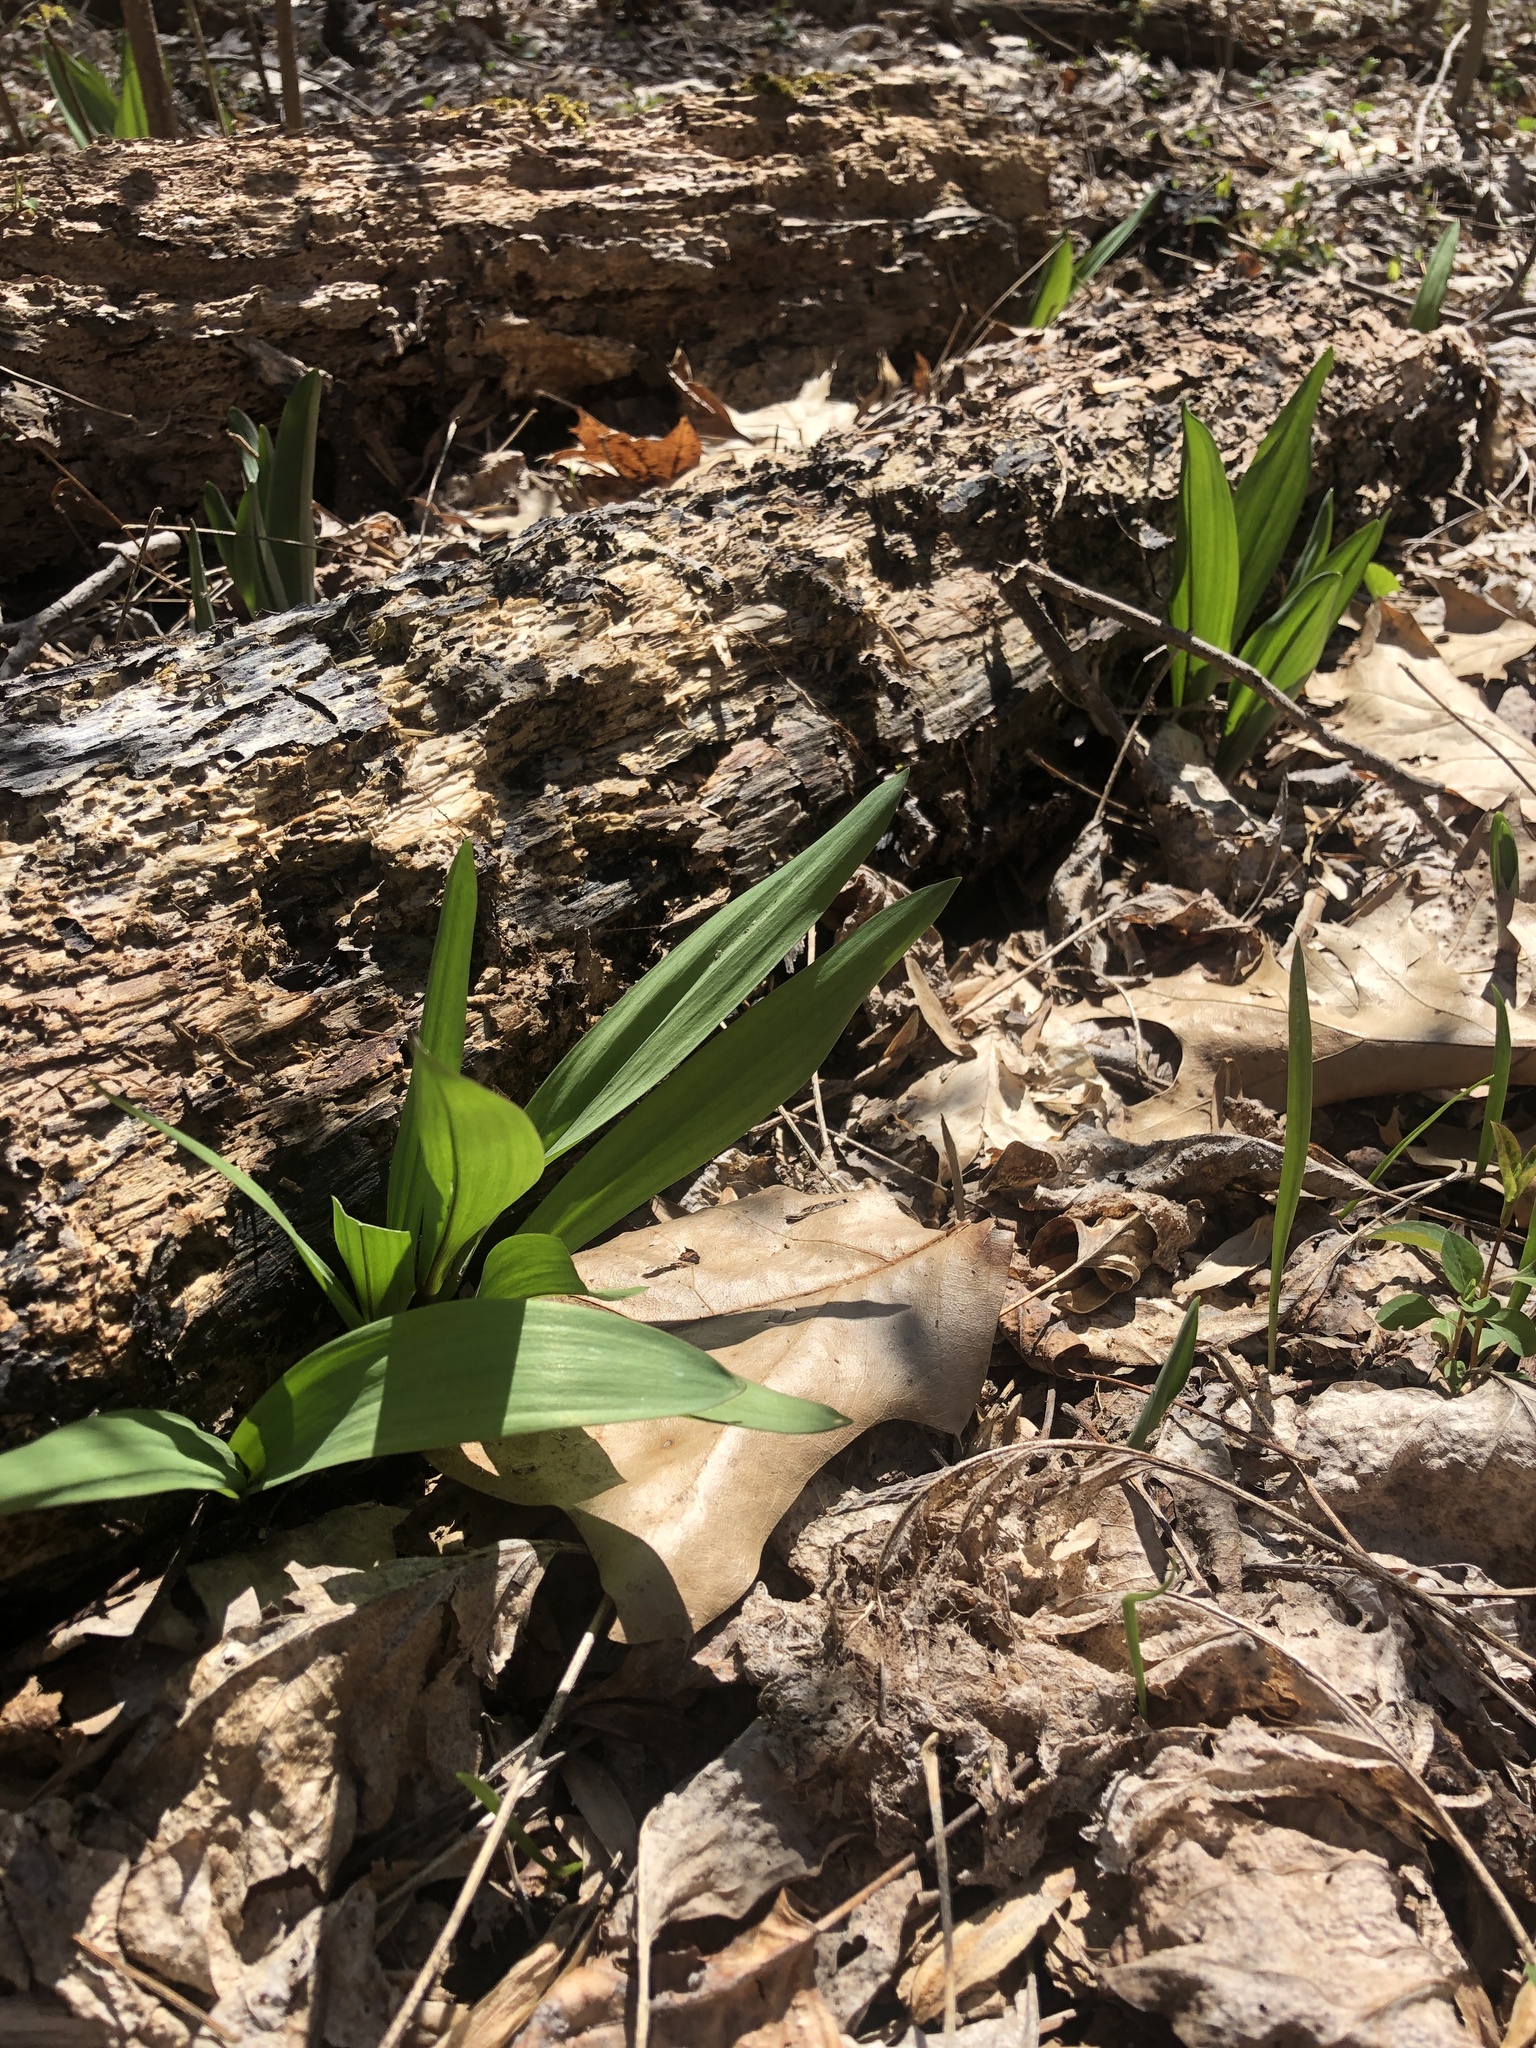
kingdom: Plantae
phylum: Tracheophyta
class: Liliopsida
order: Asparagales
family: Amaryllidaceae
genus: Allium
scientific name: Allium tricoccum
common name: Ramp
